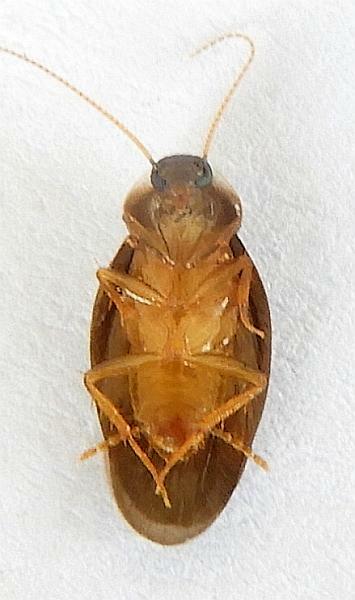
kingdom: Animalia
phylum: Arthropoda
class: Insecta
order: Blattodea
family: Corydiidae
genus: Compsodes
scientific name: Compsodes cucullatus
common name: Hooded cockroach
